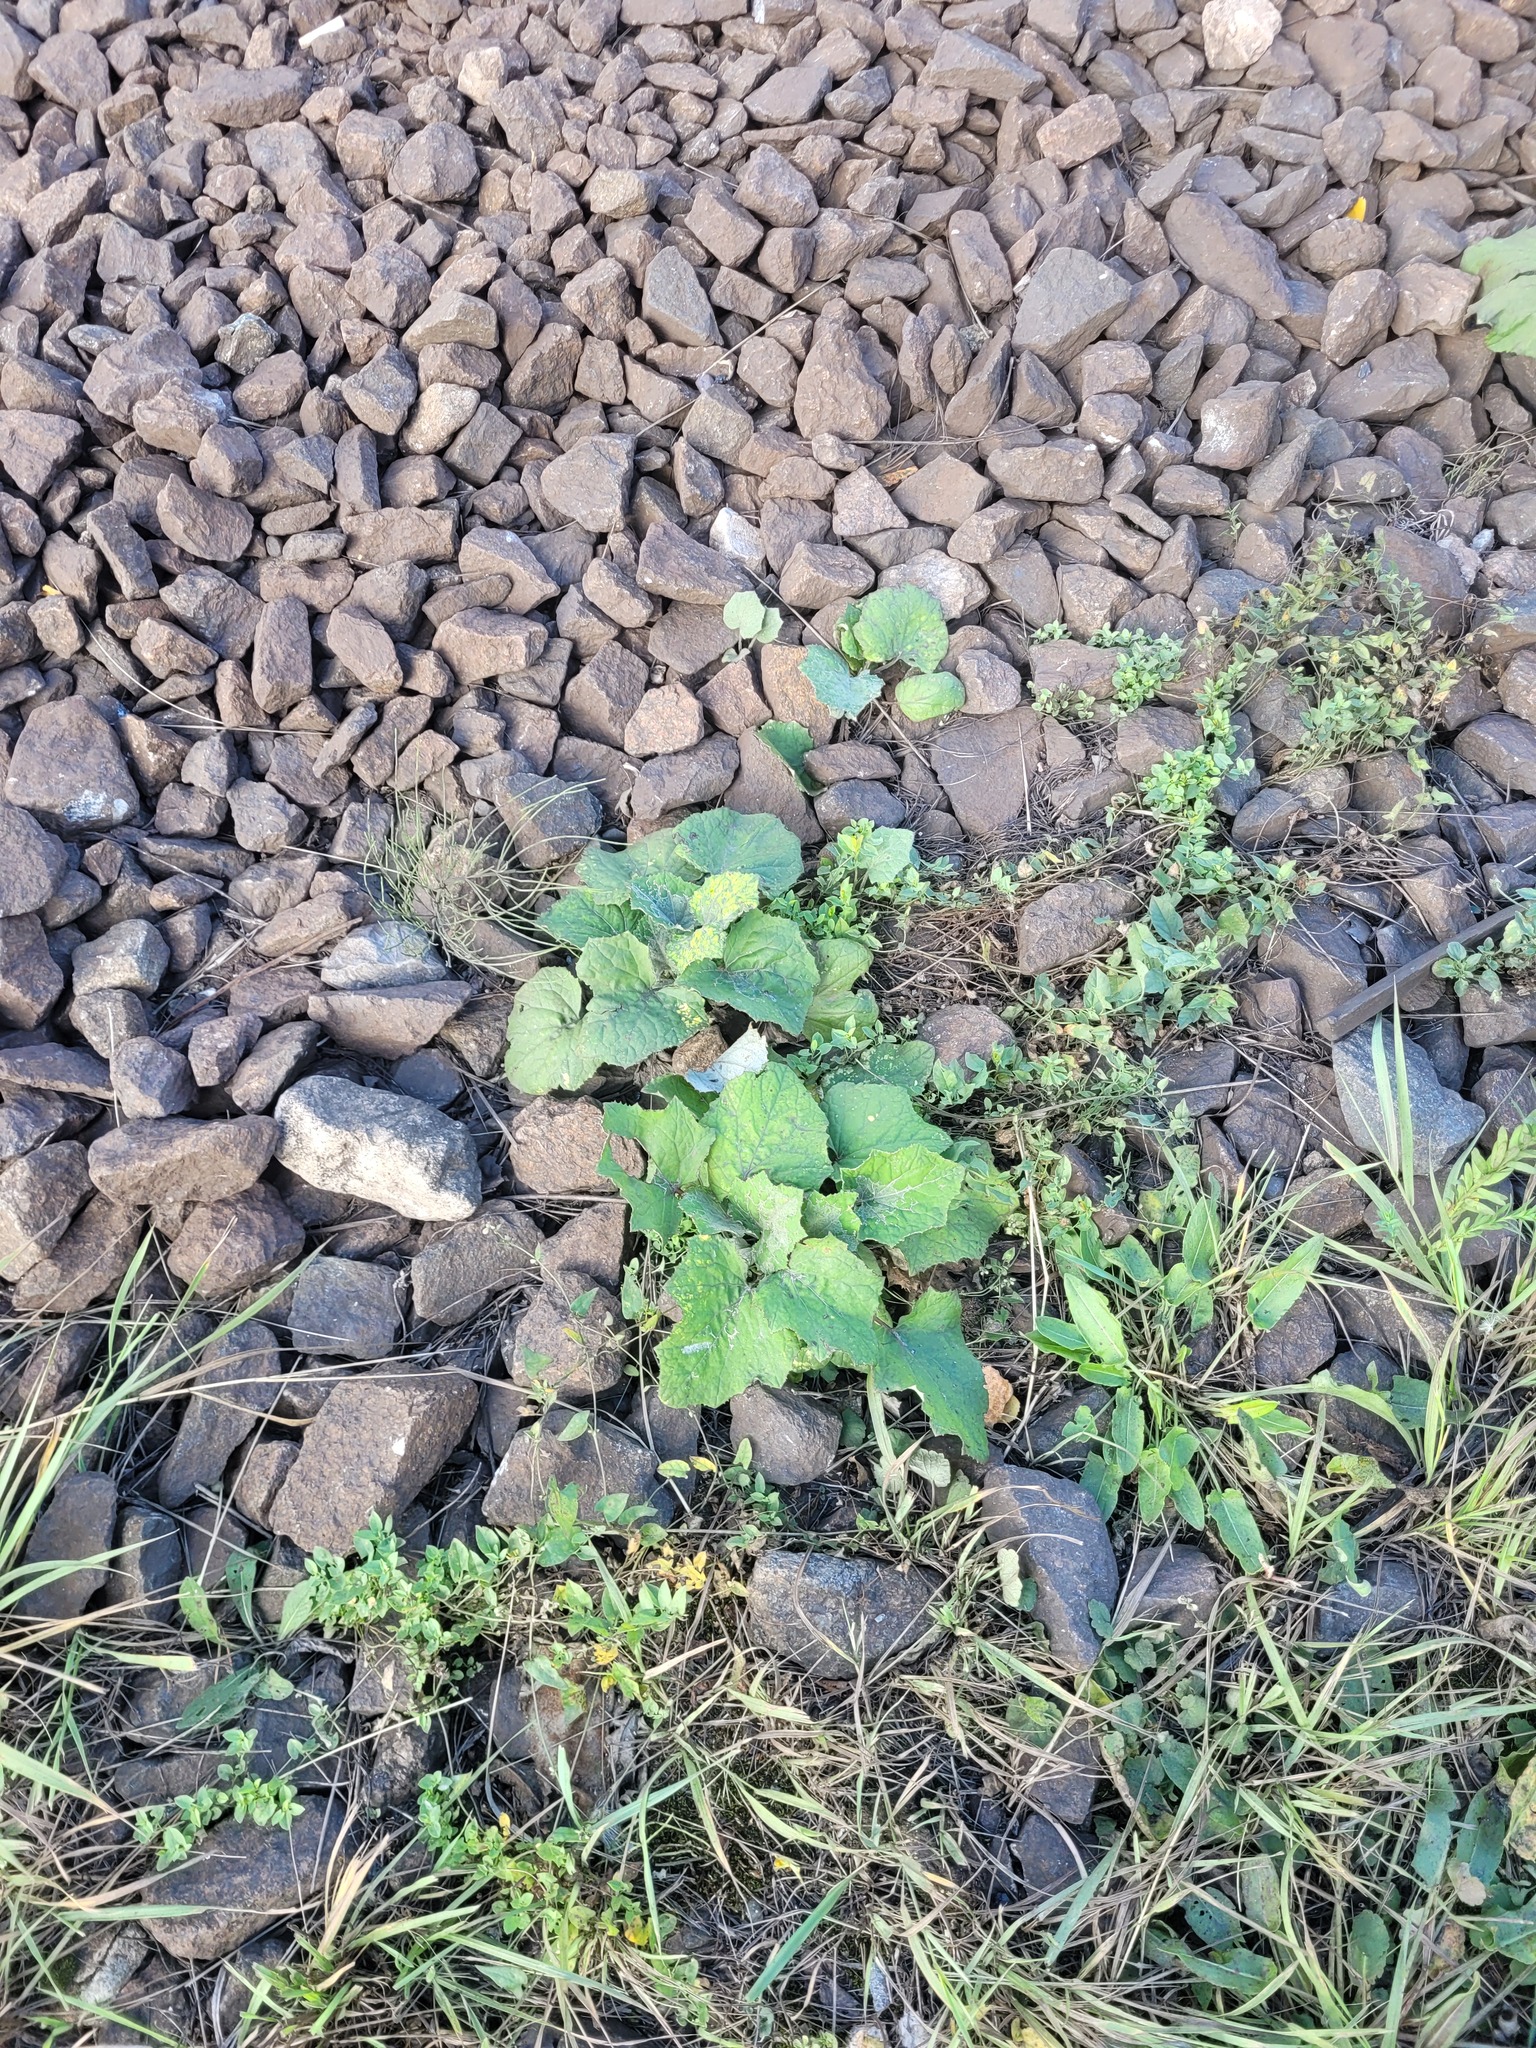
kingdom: Plantae
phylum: Tracheophyta
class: Magnoliopsida
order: Asterales
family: Asteraceae
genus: Tussilago
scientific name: Tussilago farfara
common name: Coltsfoot
